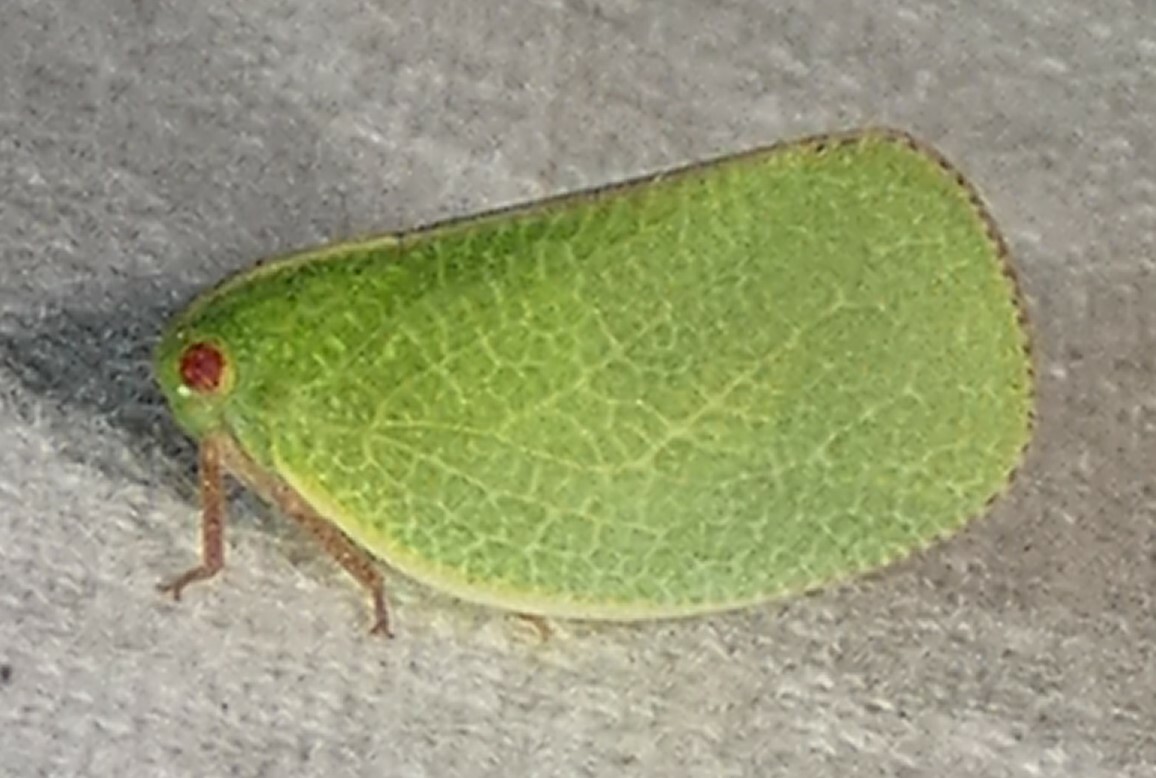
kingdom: Animalia
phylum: Arthropoda
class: Insecta
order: Hemiptera
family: Acanaloniidae
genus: Acanalonia
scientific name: Acanalonia servillei
